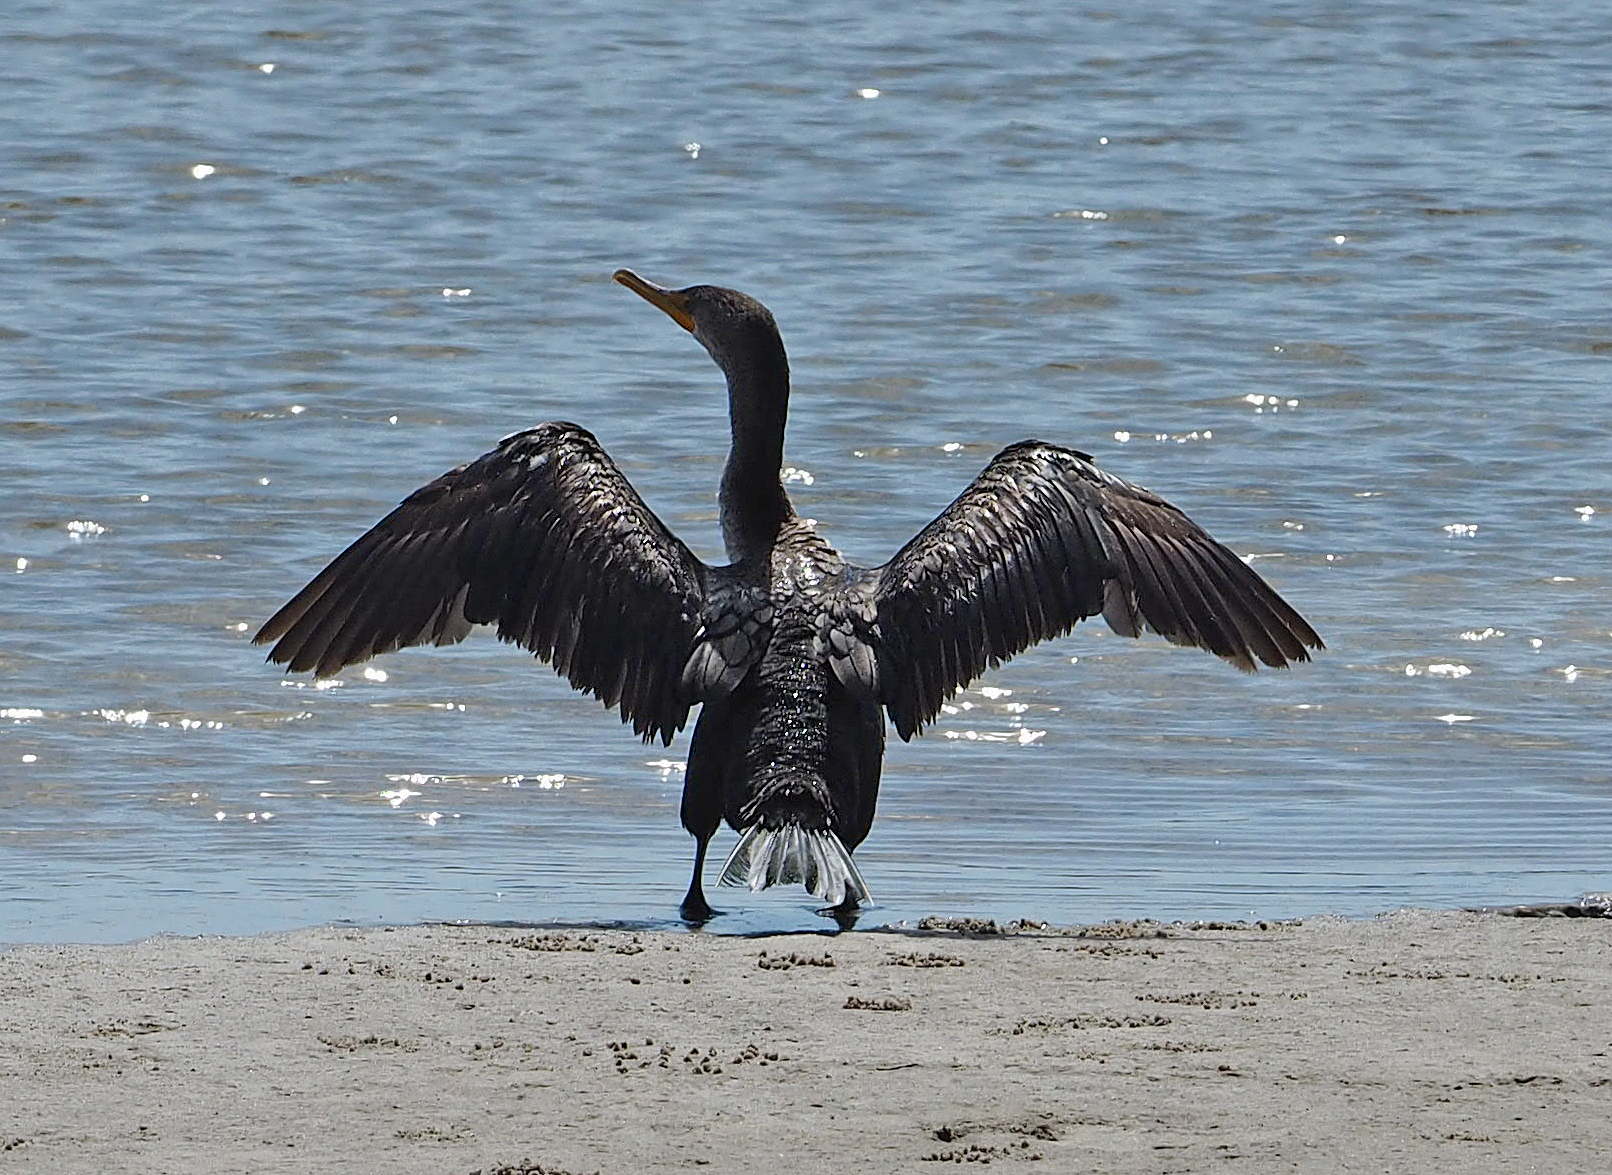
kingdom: Animalia
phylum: Chordata
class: Aves
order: Suliformes
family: Phalacrocoracidae
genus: Phalacrocorax
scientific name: Phalacrocorax auritus
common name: Double-crested cormorant
